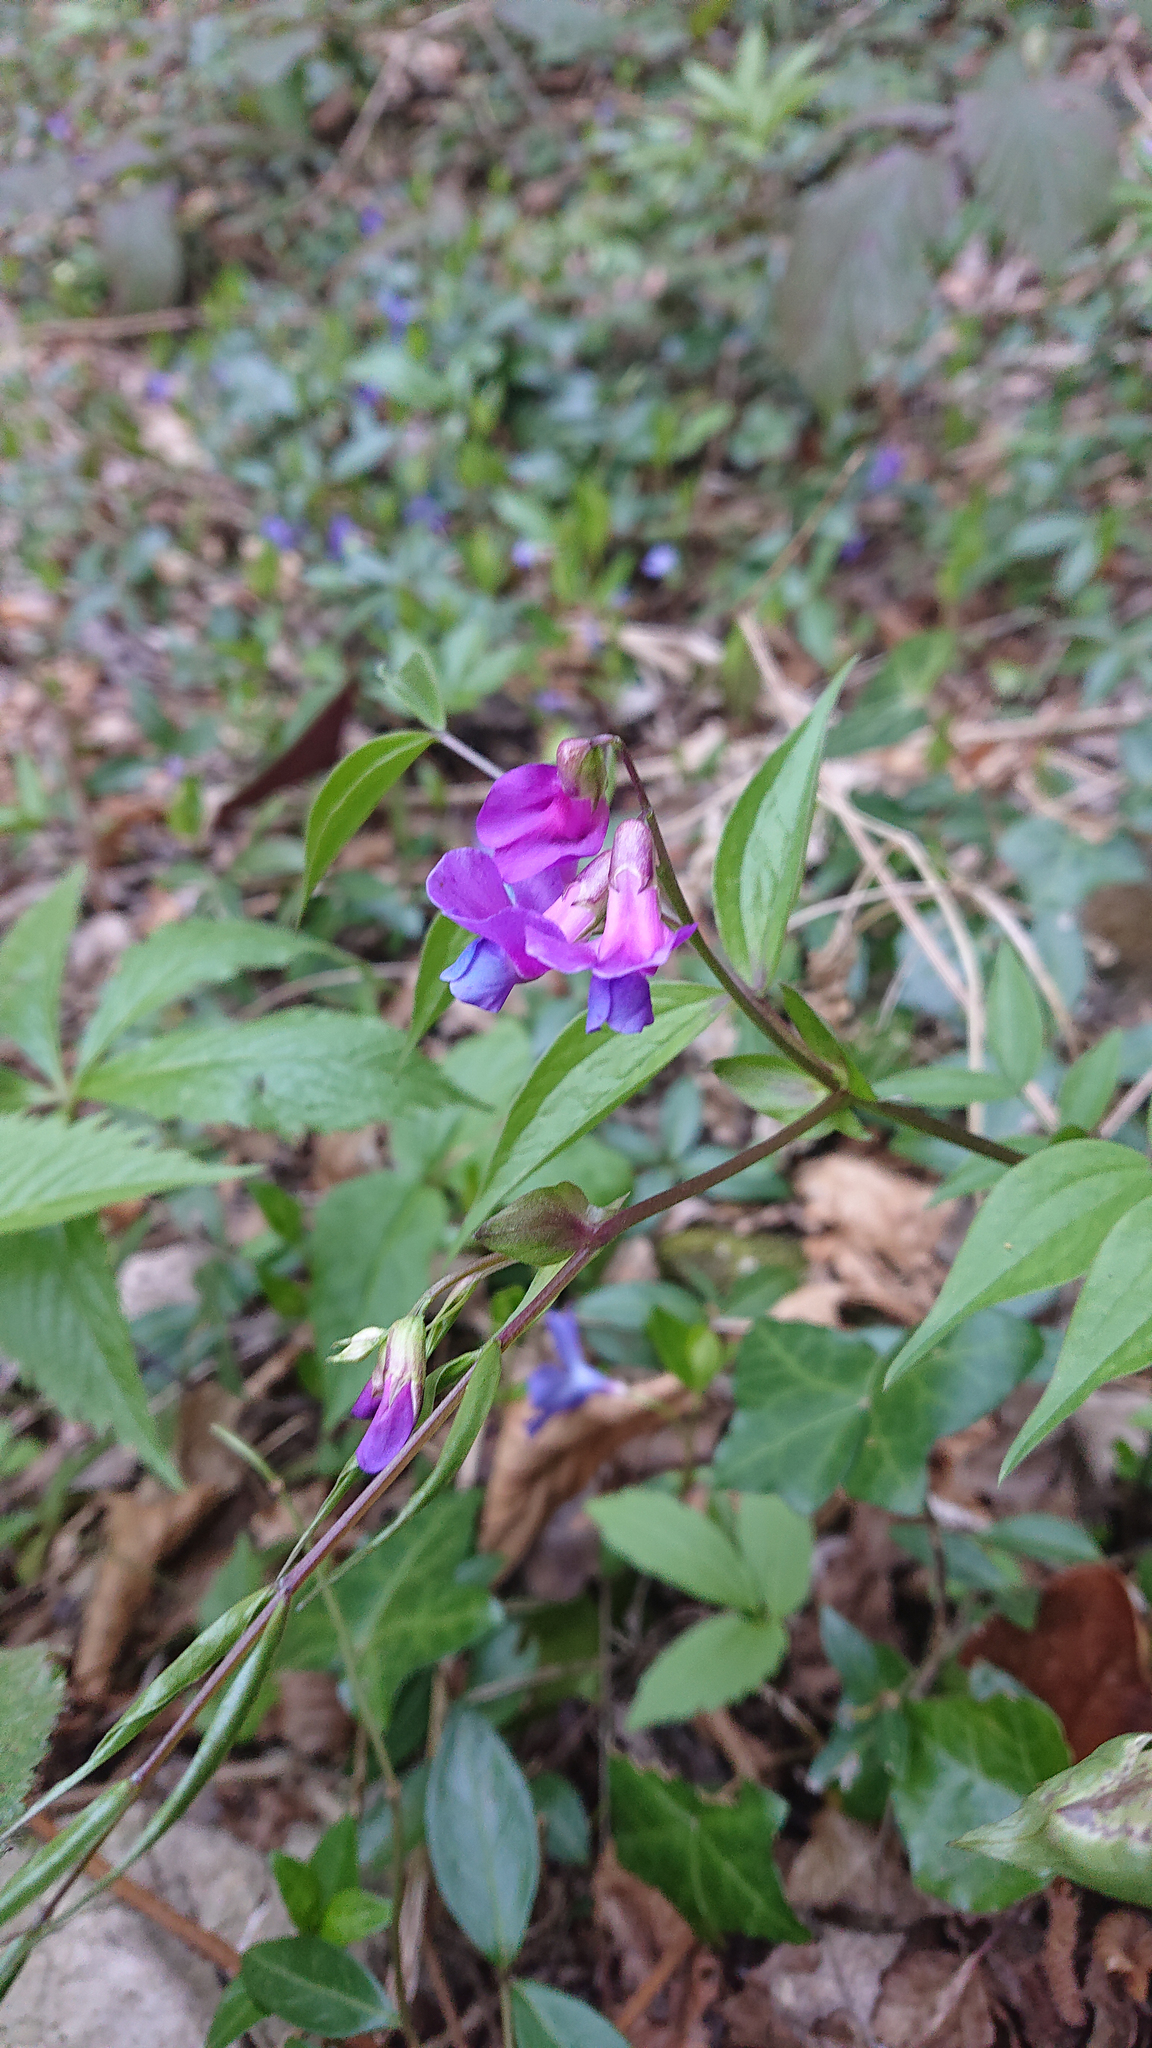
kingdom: Plantae
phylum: Tracheophyta
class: Magnoliopsida
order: Fabales
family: Fabaceae
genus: Lathyrus
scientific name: Lathyrus vernus
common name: Spring pea
